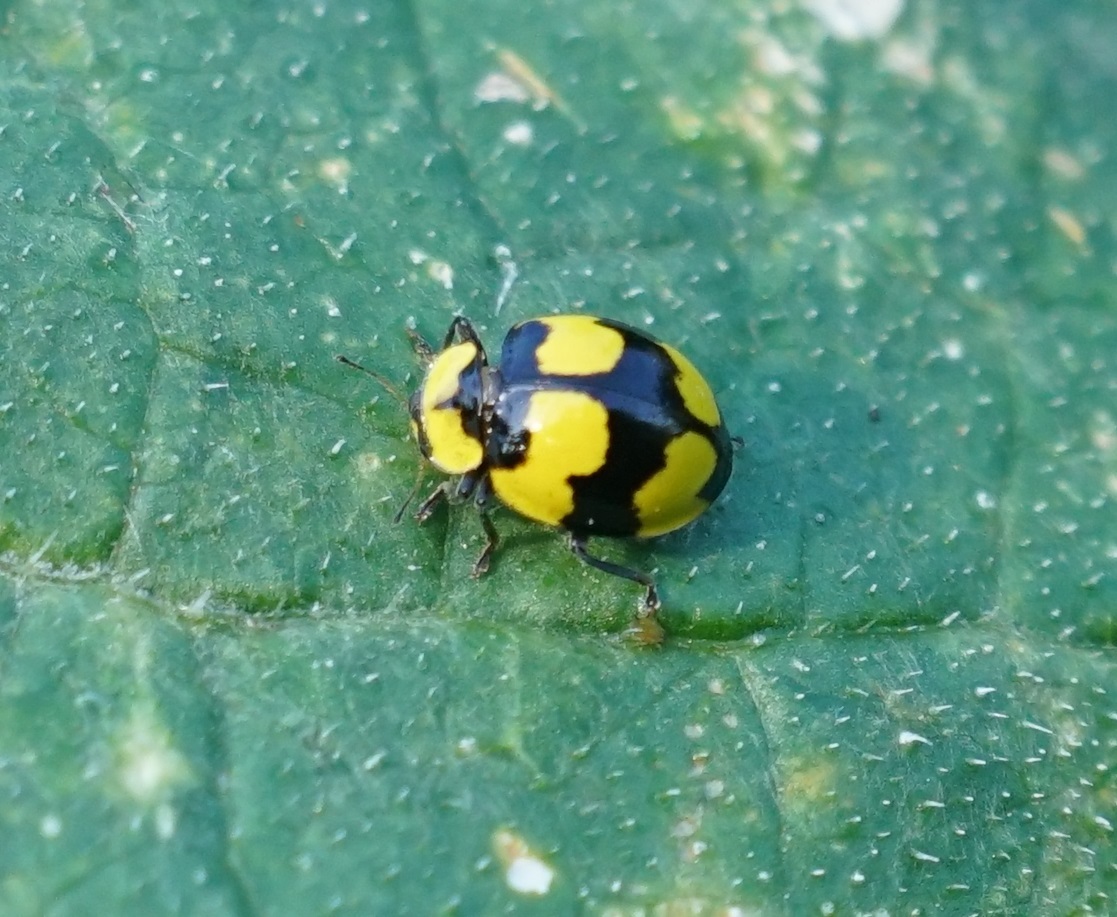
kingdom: Animalia
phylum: Arthropoda
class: Insecta
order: Coleoptera
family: Coccinellidae
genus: Illeis
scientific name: Illeis galbula
